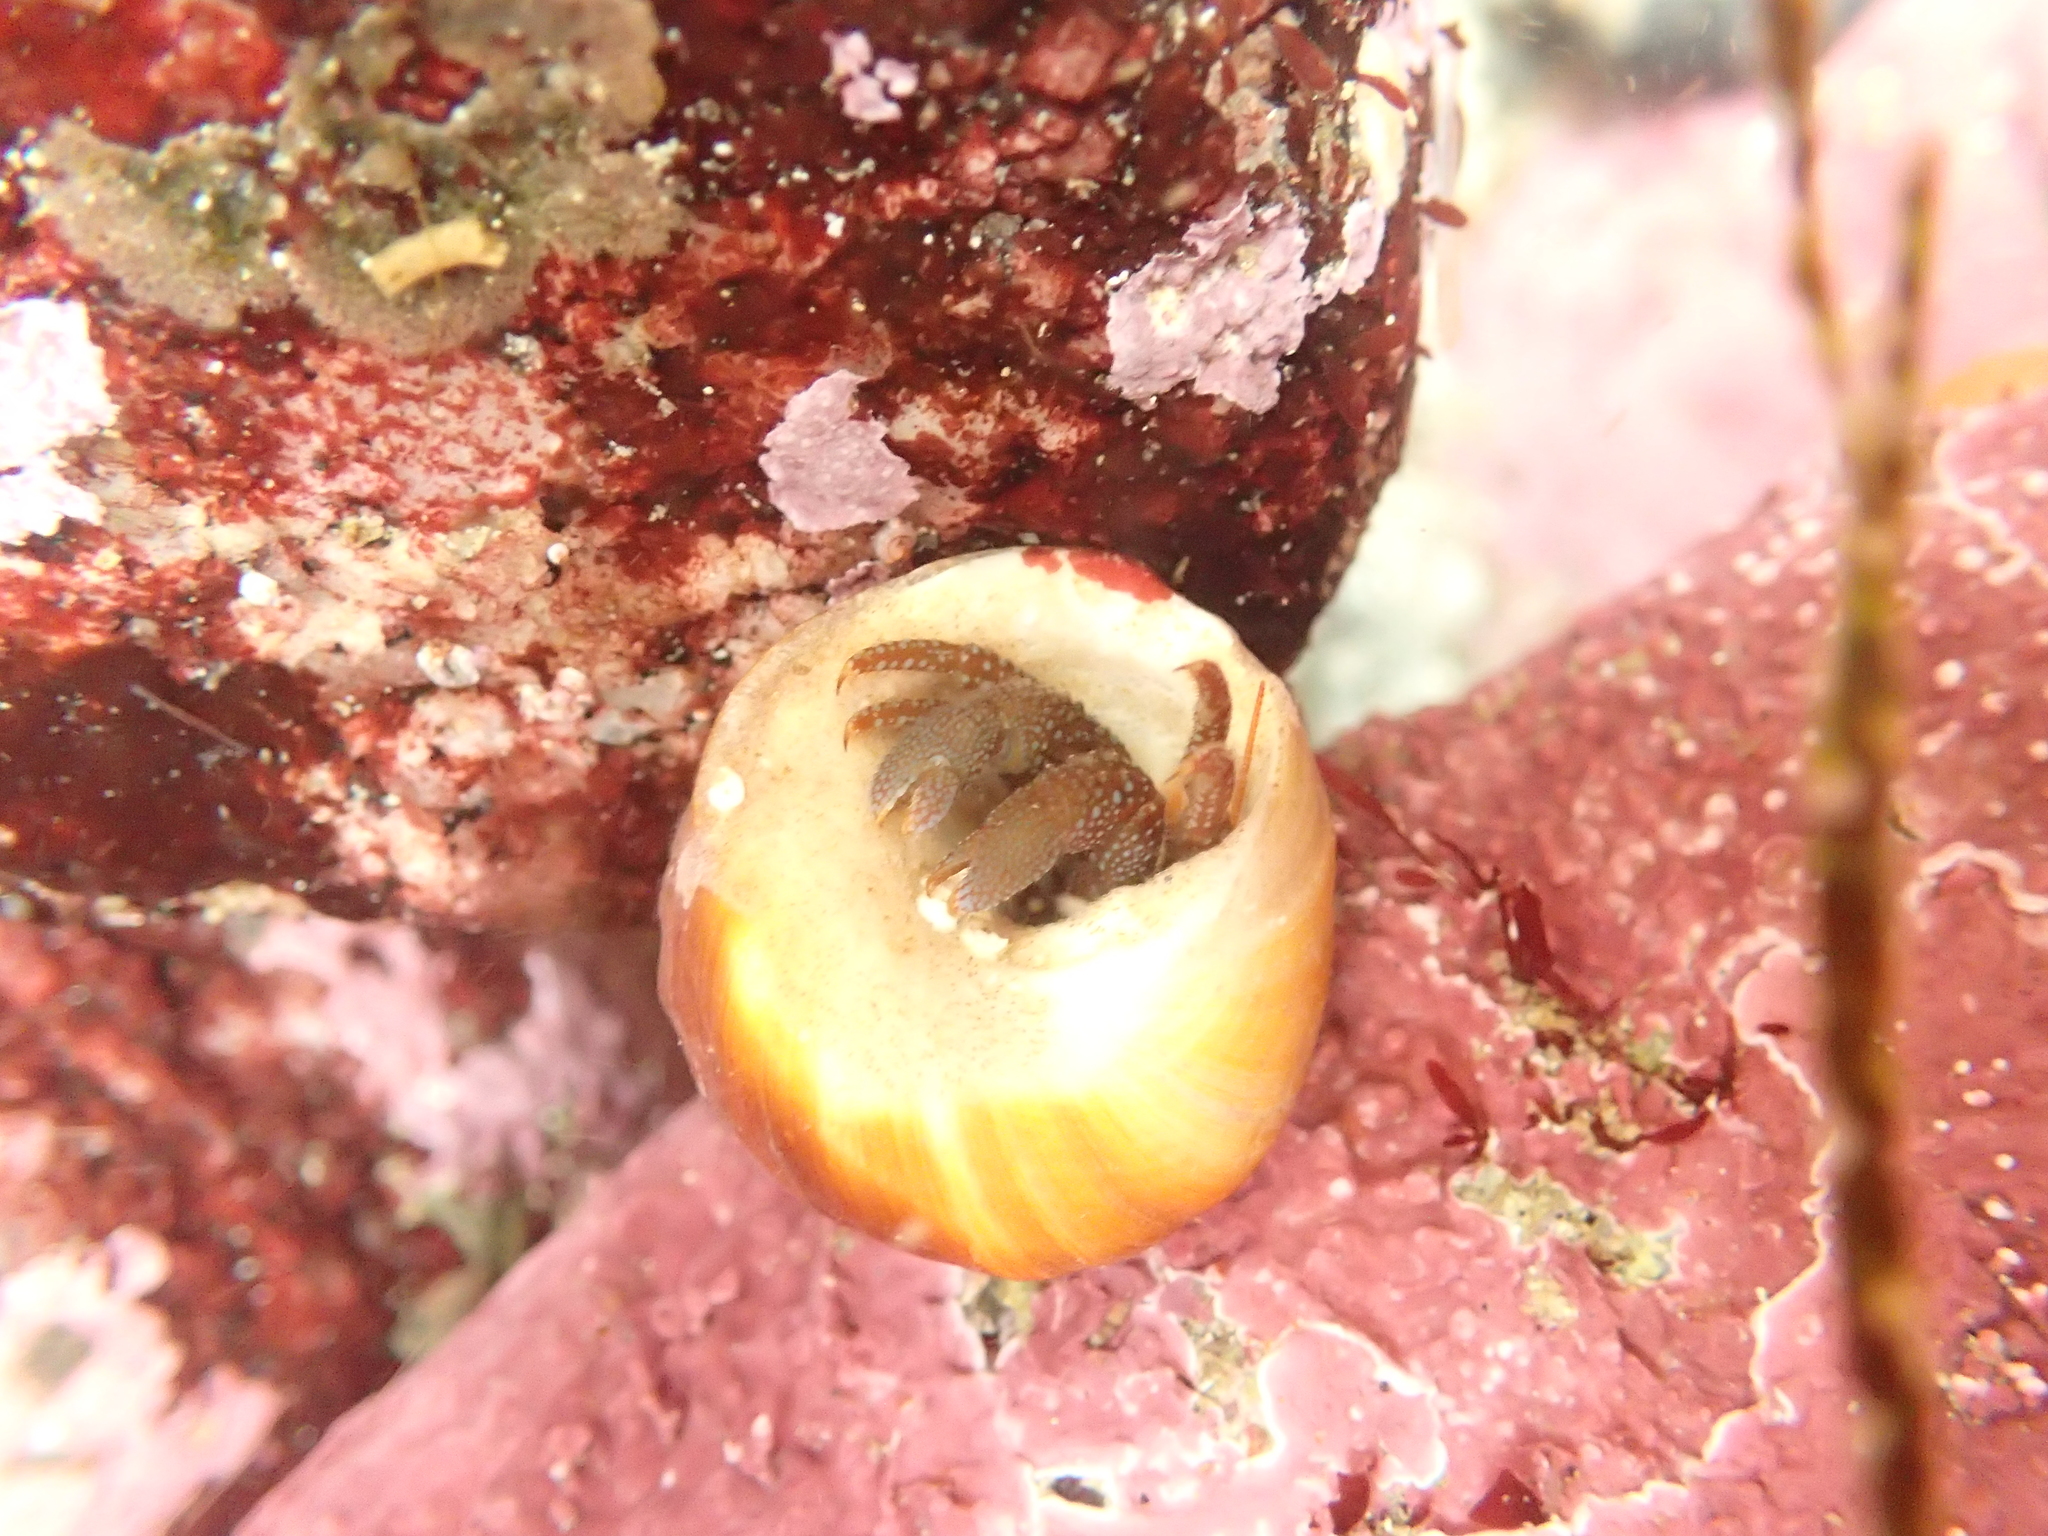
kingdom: Animalia
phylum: Arthropoda
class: Malacostraca
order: Decapoda
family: Paguridae
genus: Pagurus
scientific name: Pagurus granosimanus
